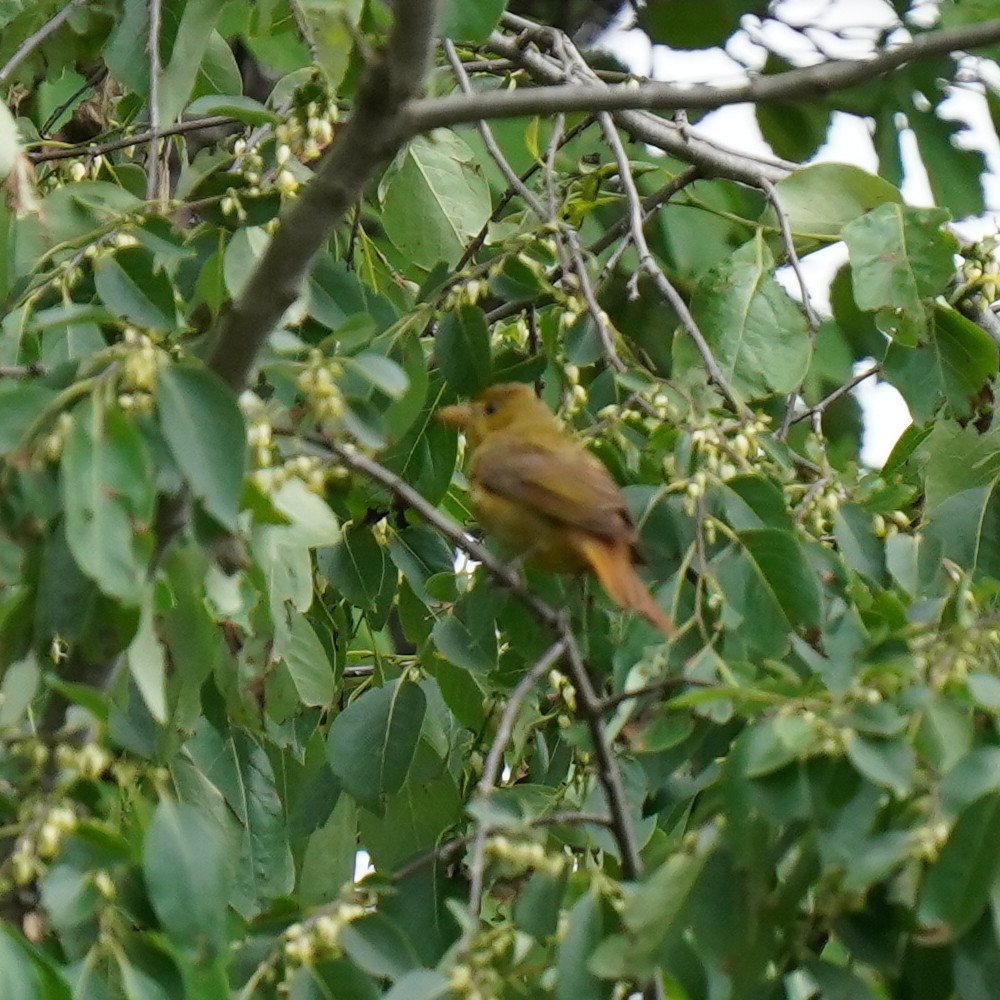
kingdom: Animalia
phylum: Chordata
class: Aves
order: Passeriformes
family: Cardinalidae
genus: Piranga
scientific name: Piranga rubra
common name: Summer tanager
